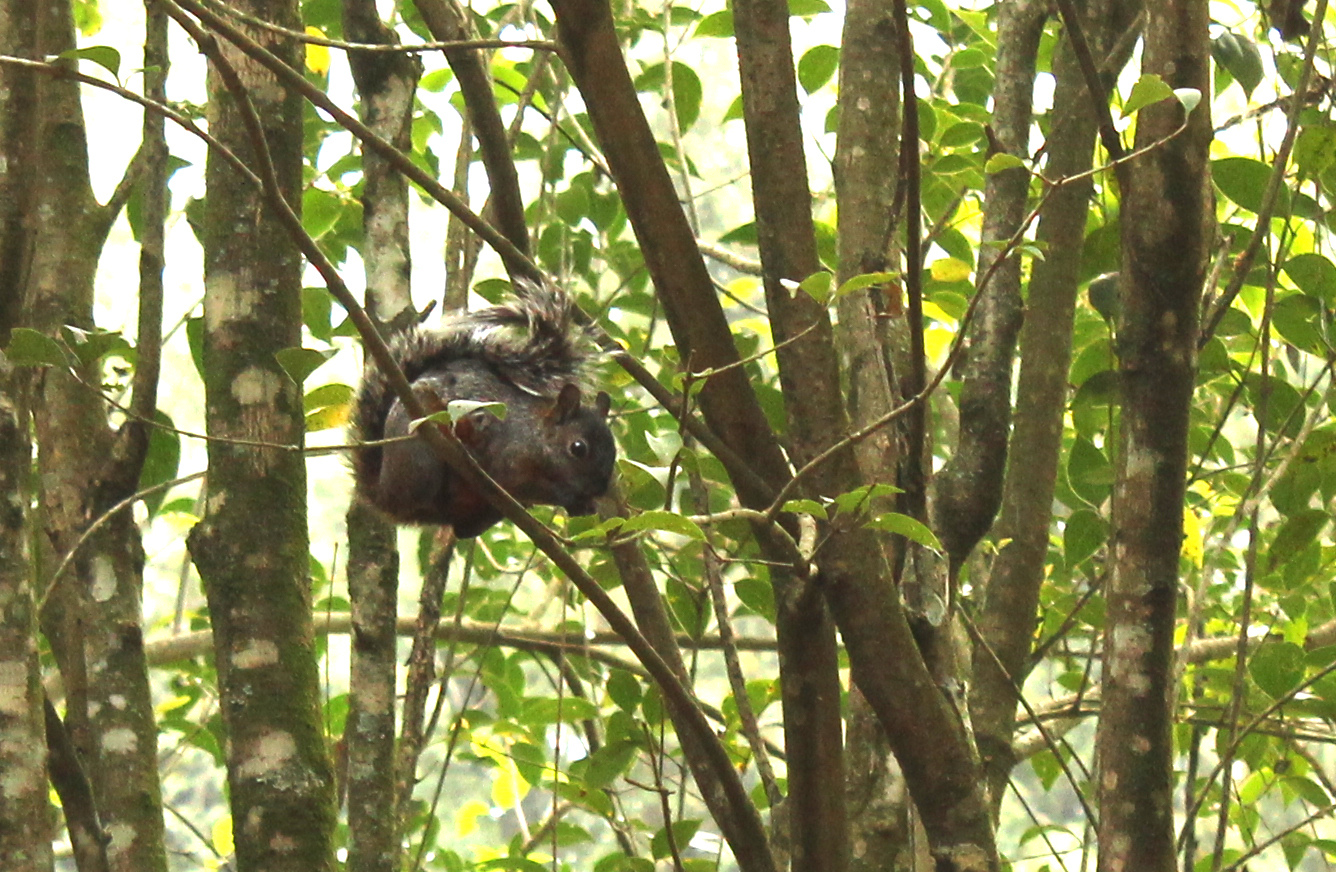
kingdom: Animalia
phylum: Chordata
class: Mammalia
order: Rodentia
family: Sciuridae
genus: Sciurus
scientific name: Sciurus aureogaster
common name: Red-bellied squirrel
